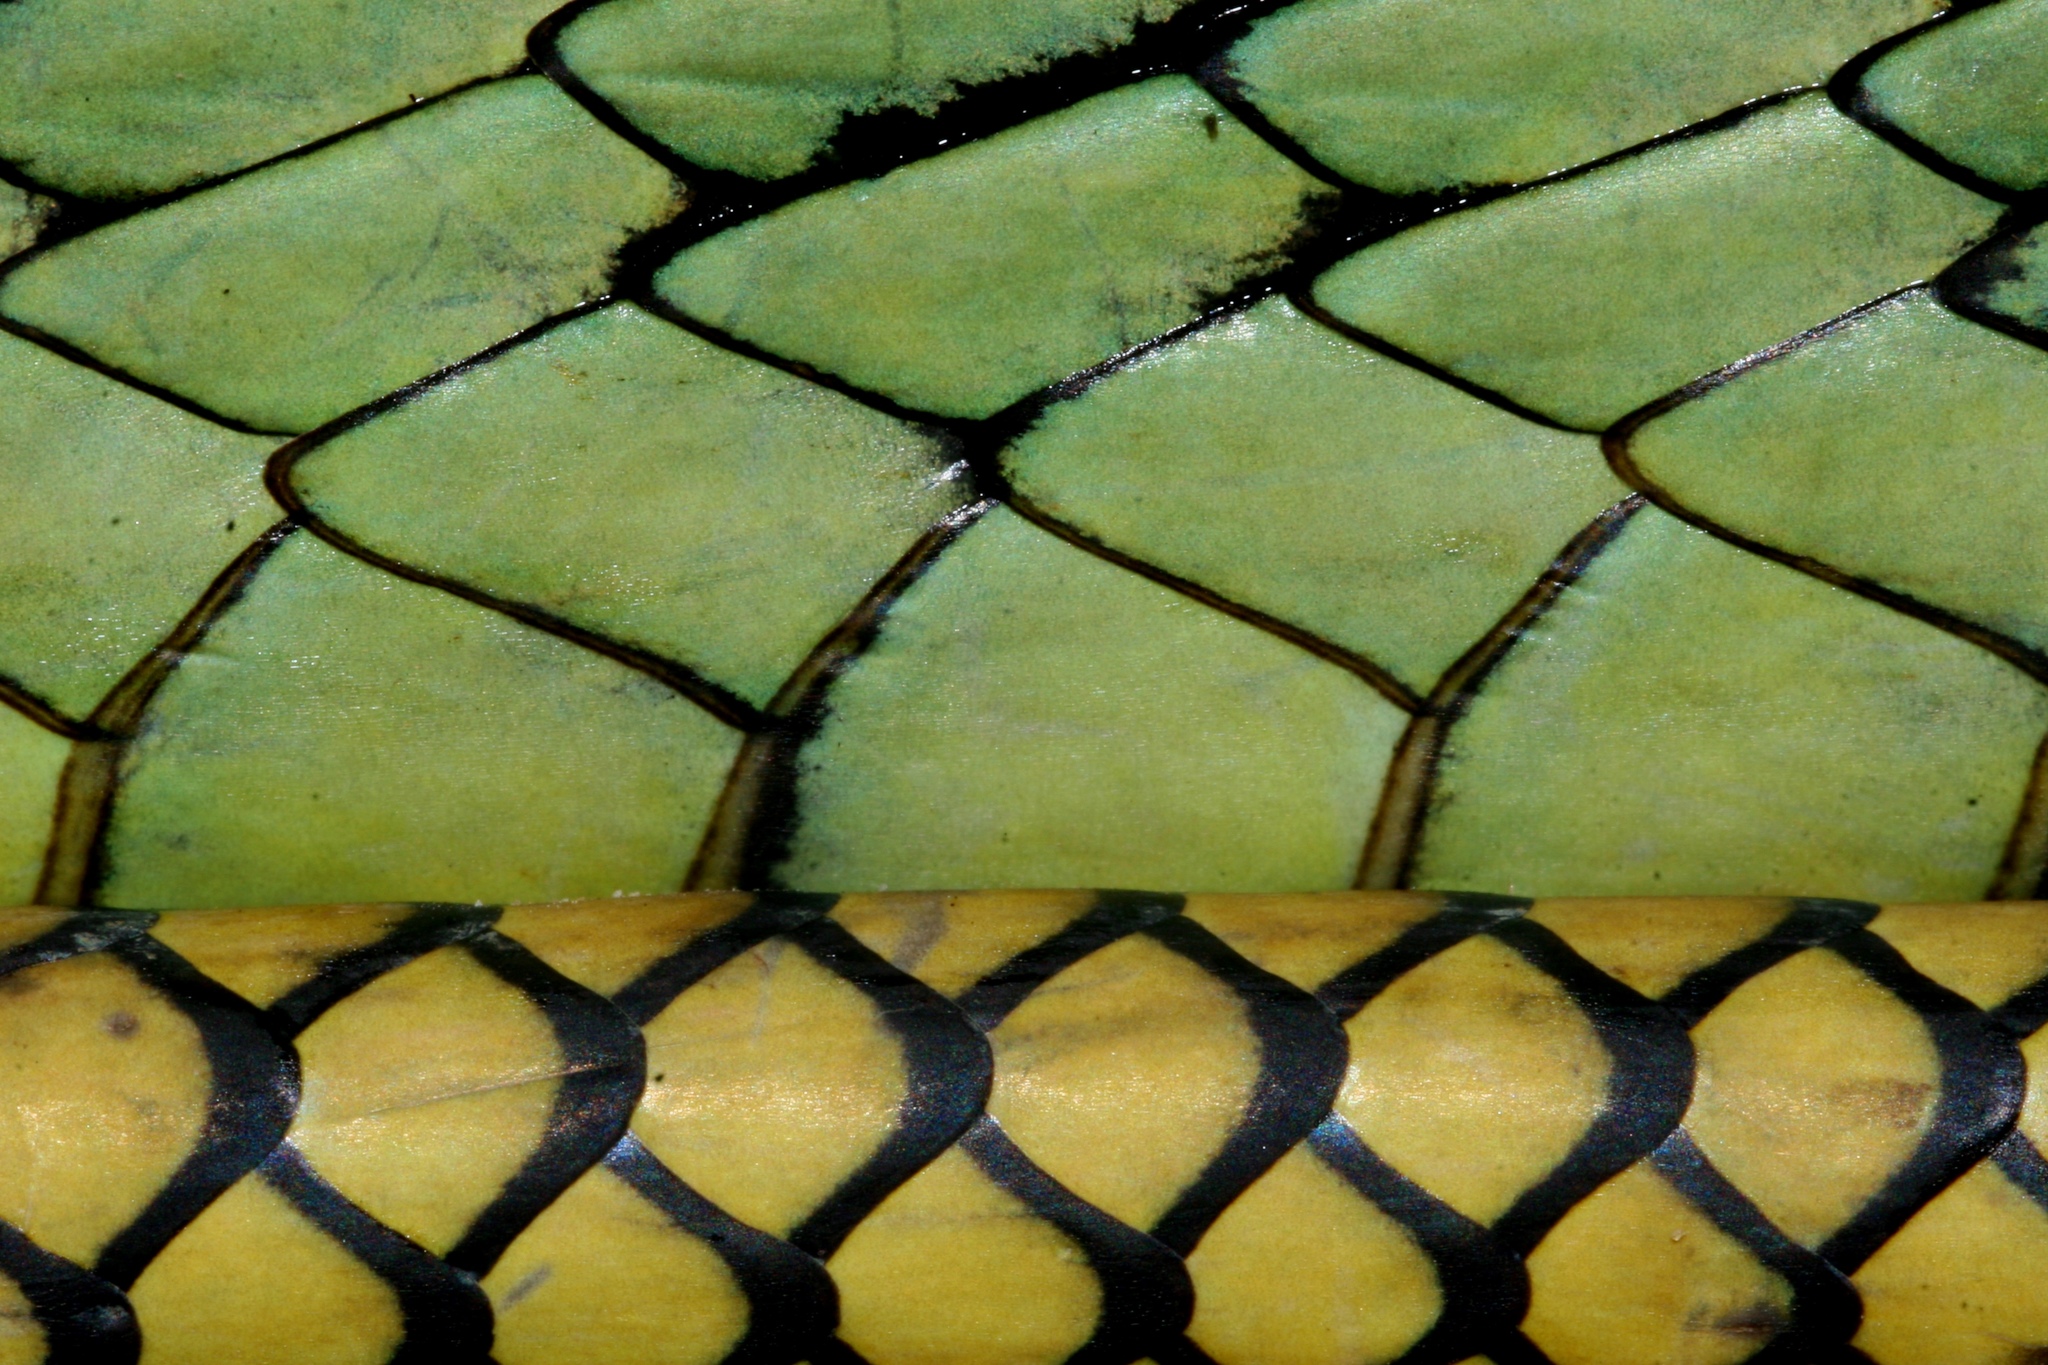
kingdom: Animalia
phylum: Chordata
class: Squamata
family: Elapidae
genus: Dendroaspis
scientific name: Dendroaspis jamesoni
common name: Jameson's mamba
